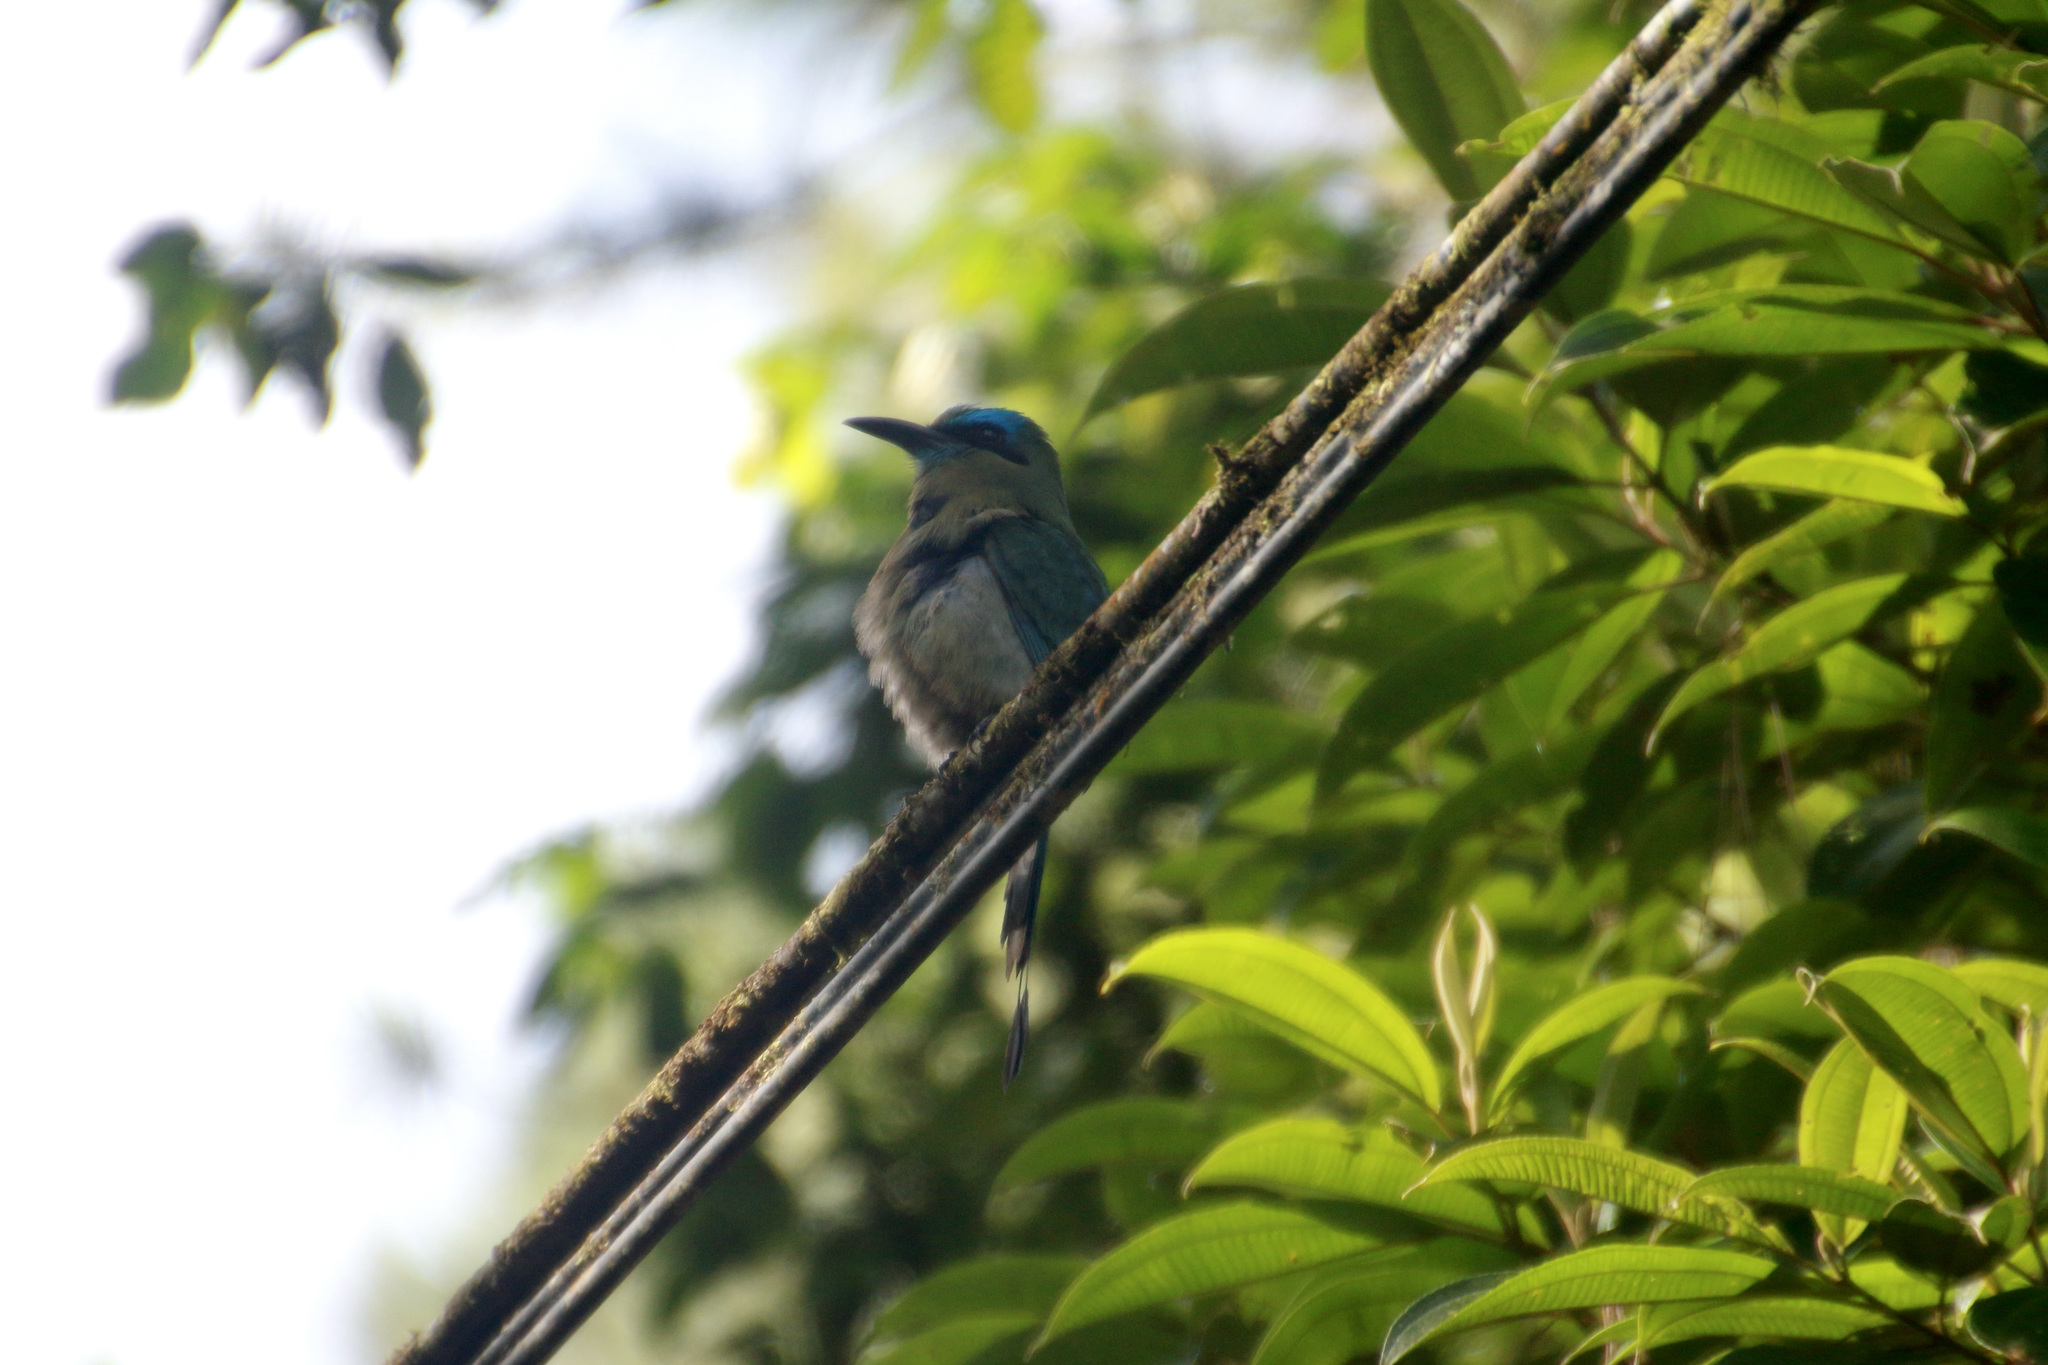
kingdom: Animalia
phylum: Chordata
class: Aves
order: Coraciiformes
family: Momotidae
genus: Electron
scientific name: Electron carinatum
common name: Keel-billed motmot
